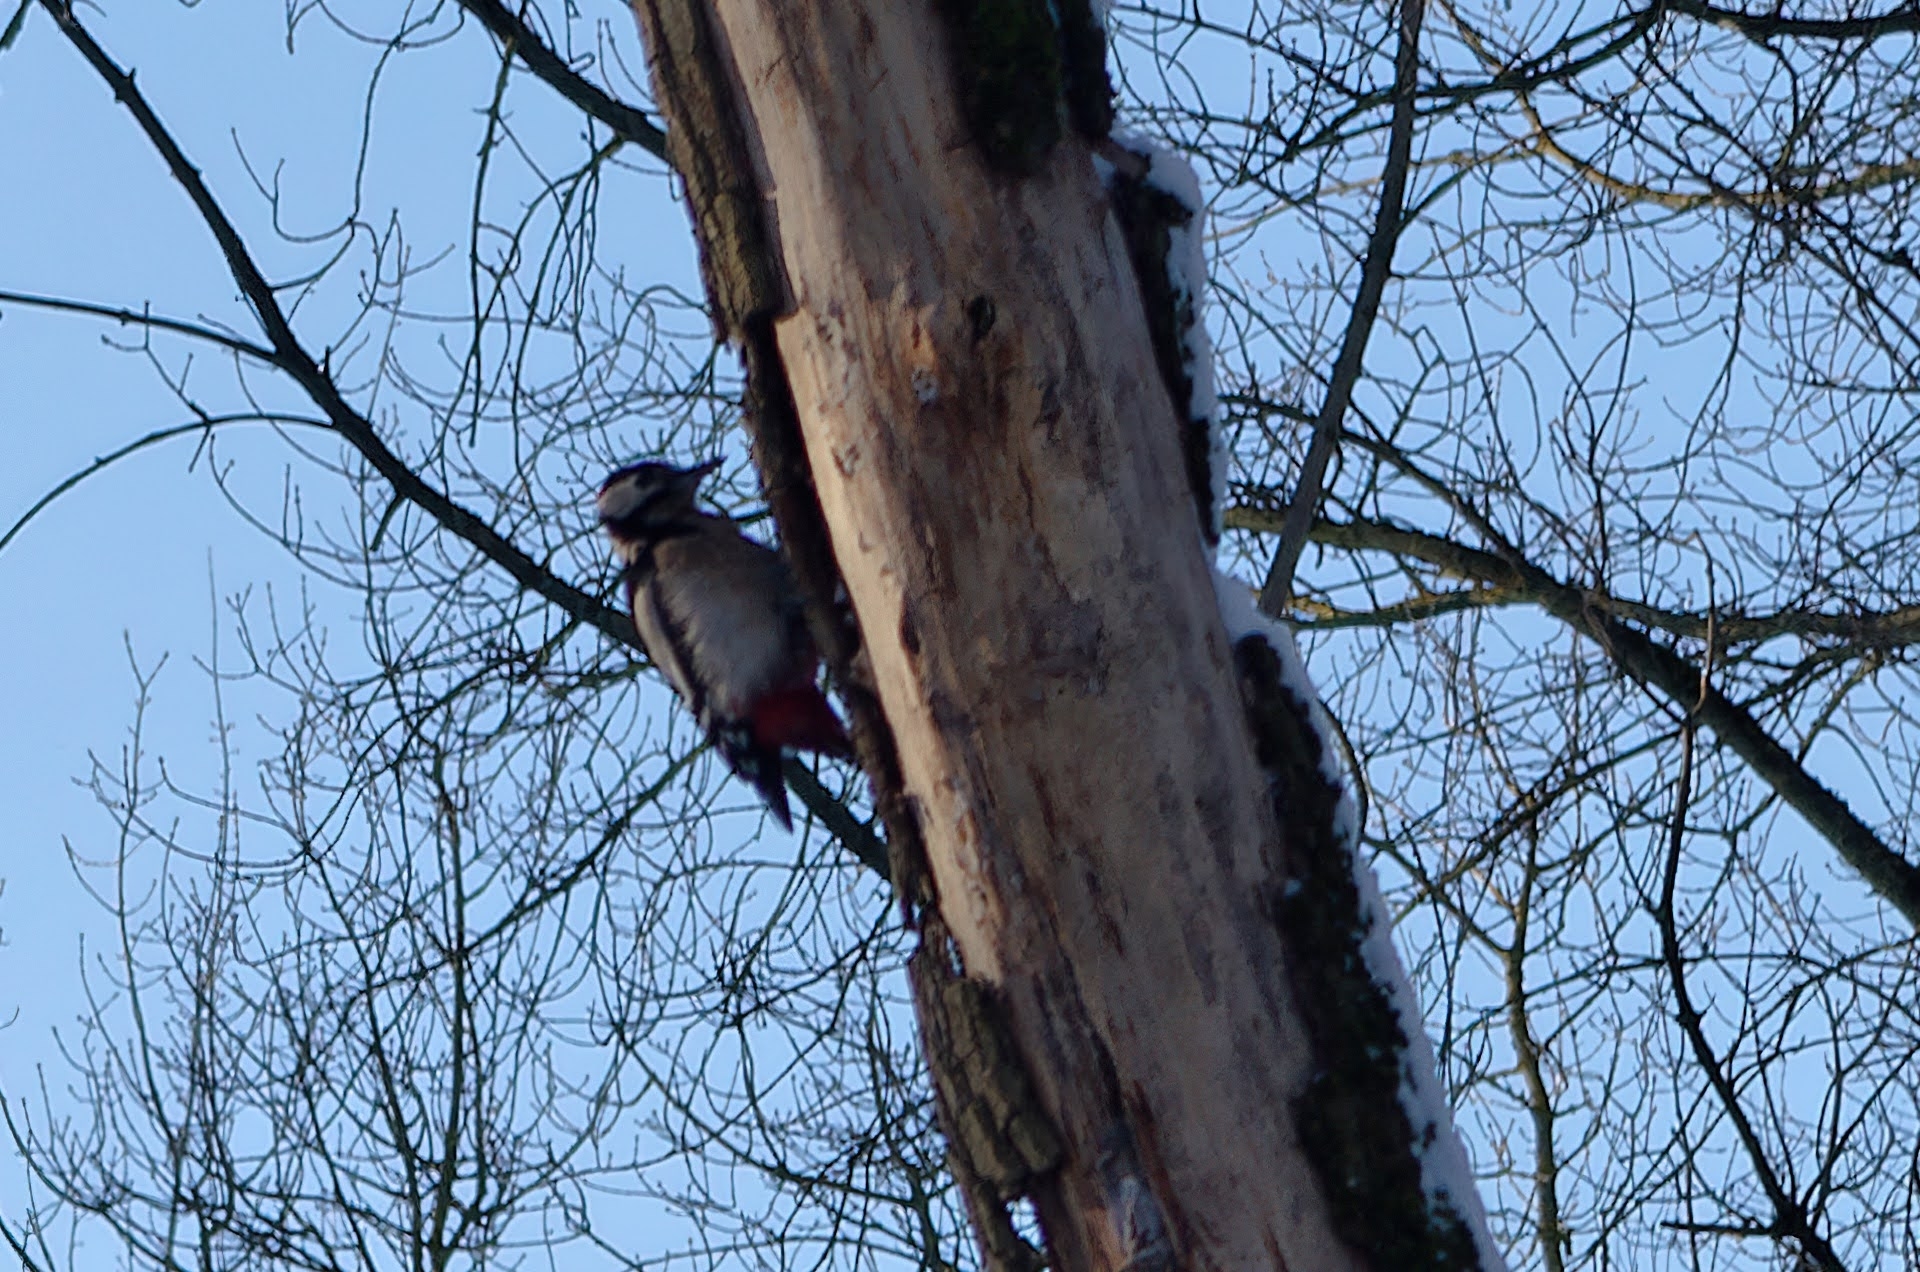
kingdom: Animalia
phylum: Chordata
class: Aves
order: Piciformes
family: Picidae
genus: Dendrocopos
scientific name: Dendrocopos major
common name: Great spotted woodpecker
